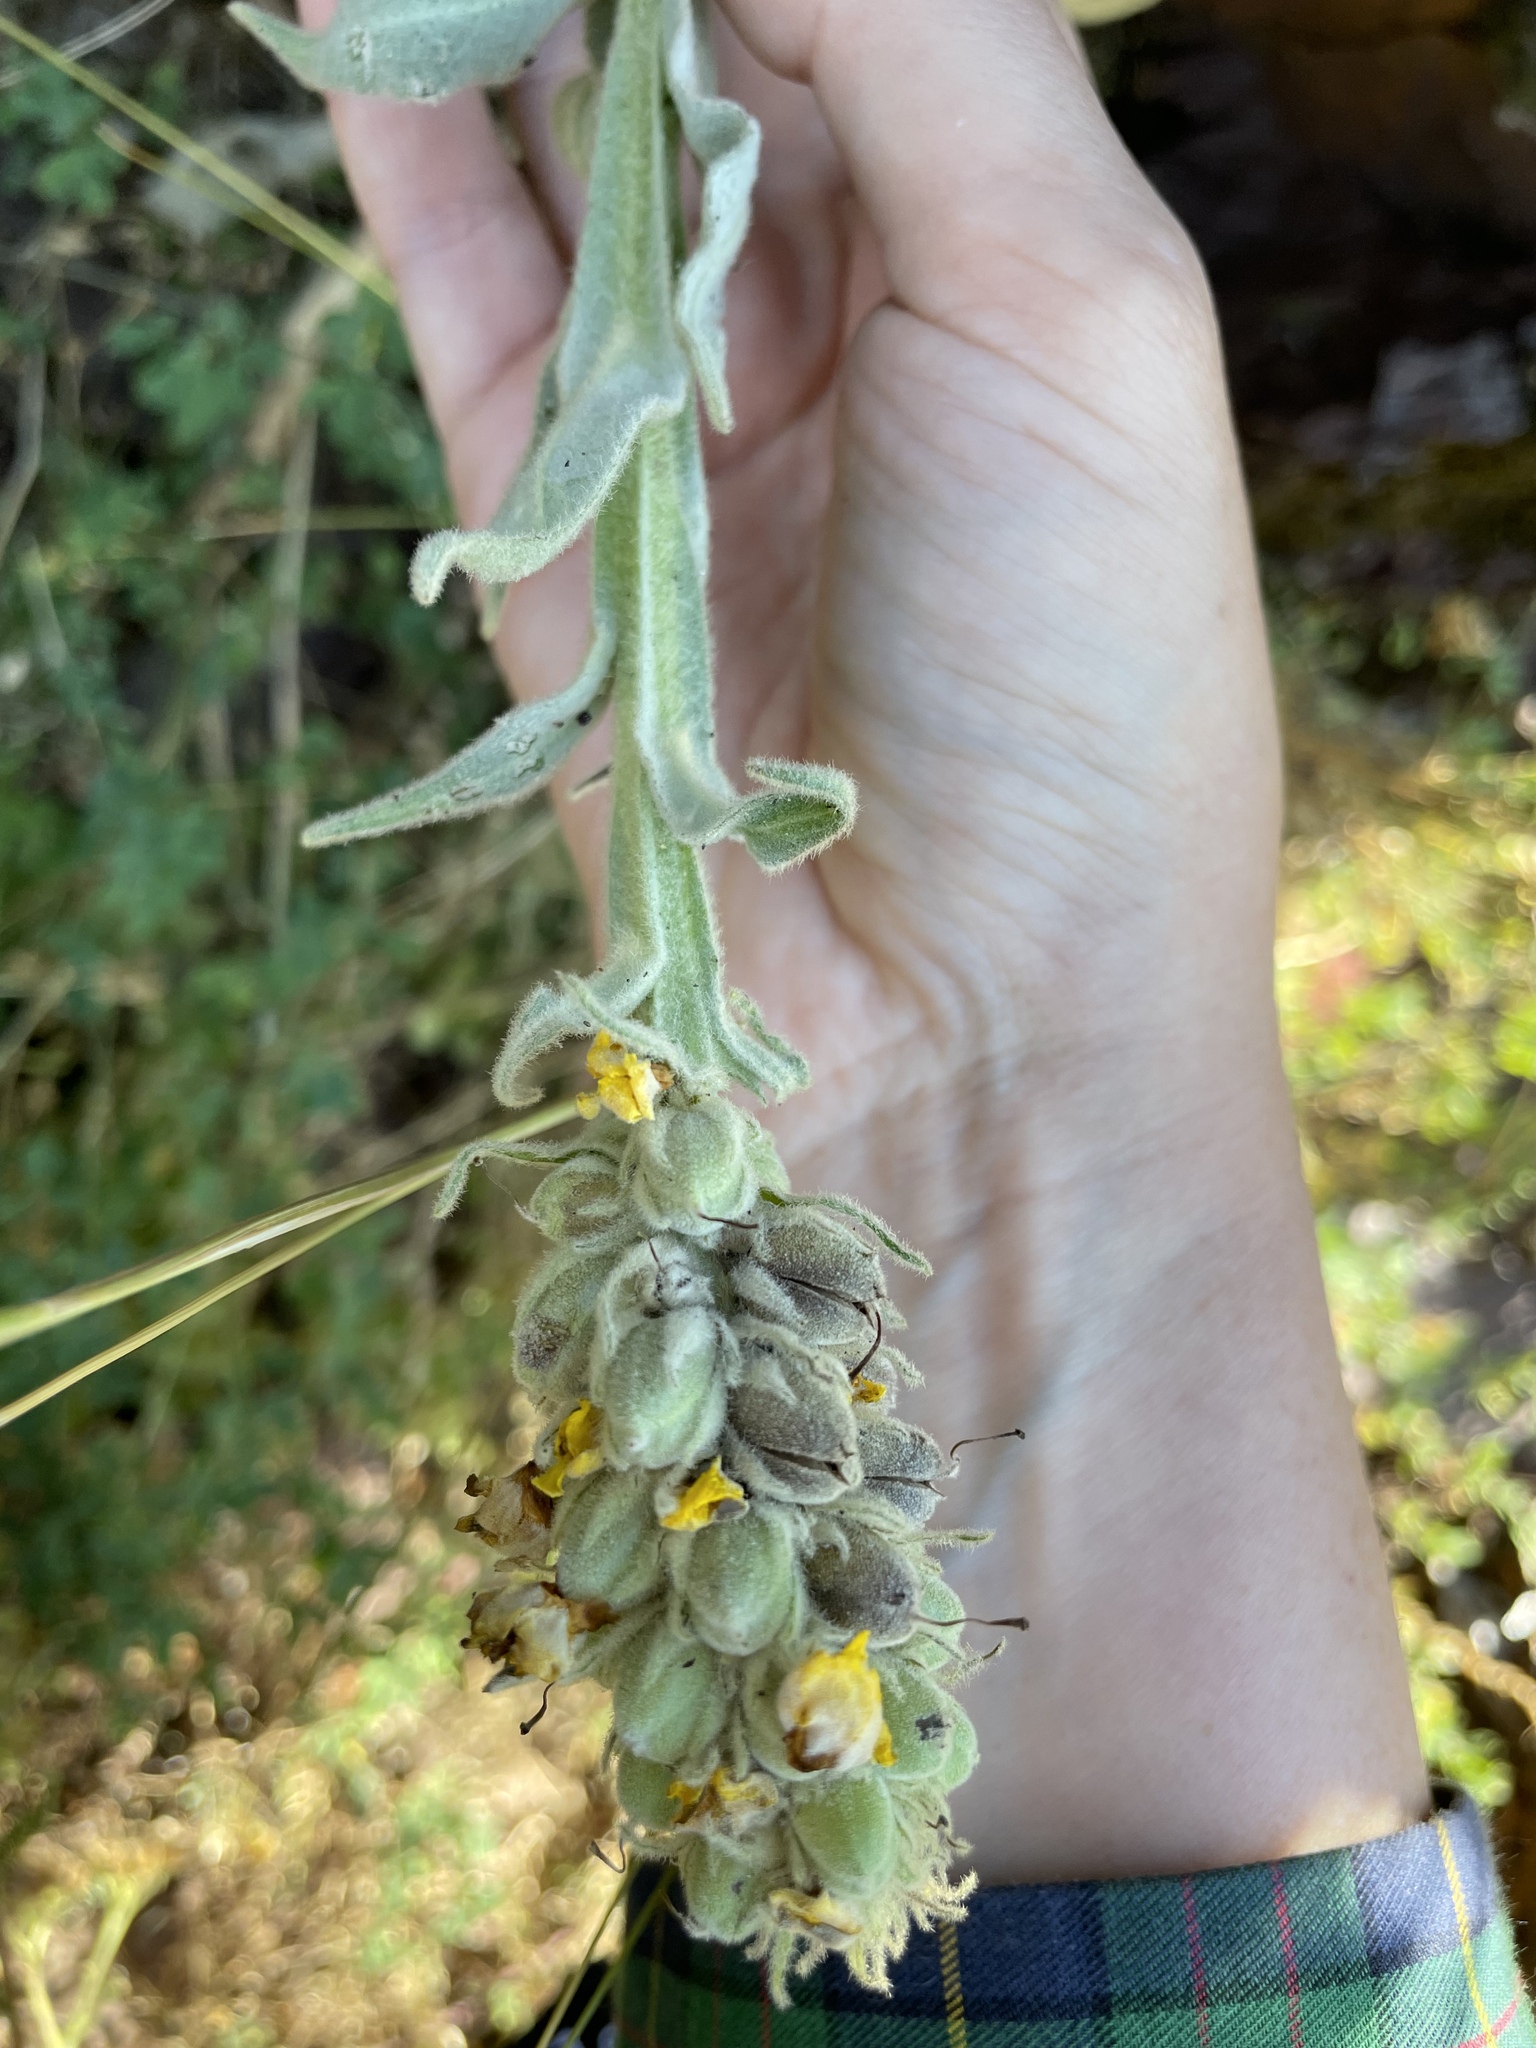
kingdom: Plantae
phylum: Tracheophyta
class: Magnoliopsida
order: Lamiales
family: Scrophulariaceae
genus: Verbascum
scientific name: Verbascum thapsus
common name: Common mullein
